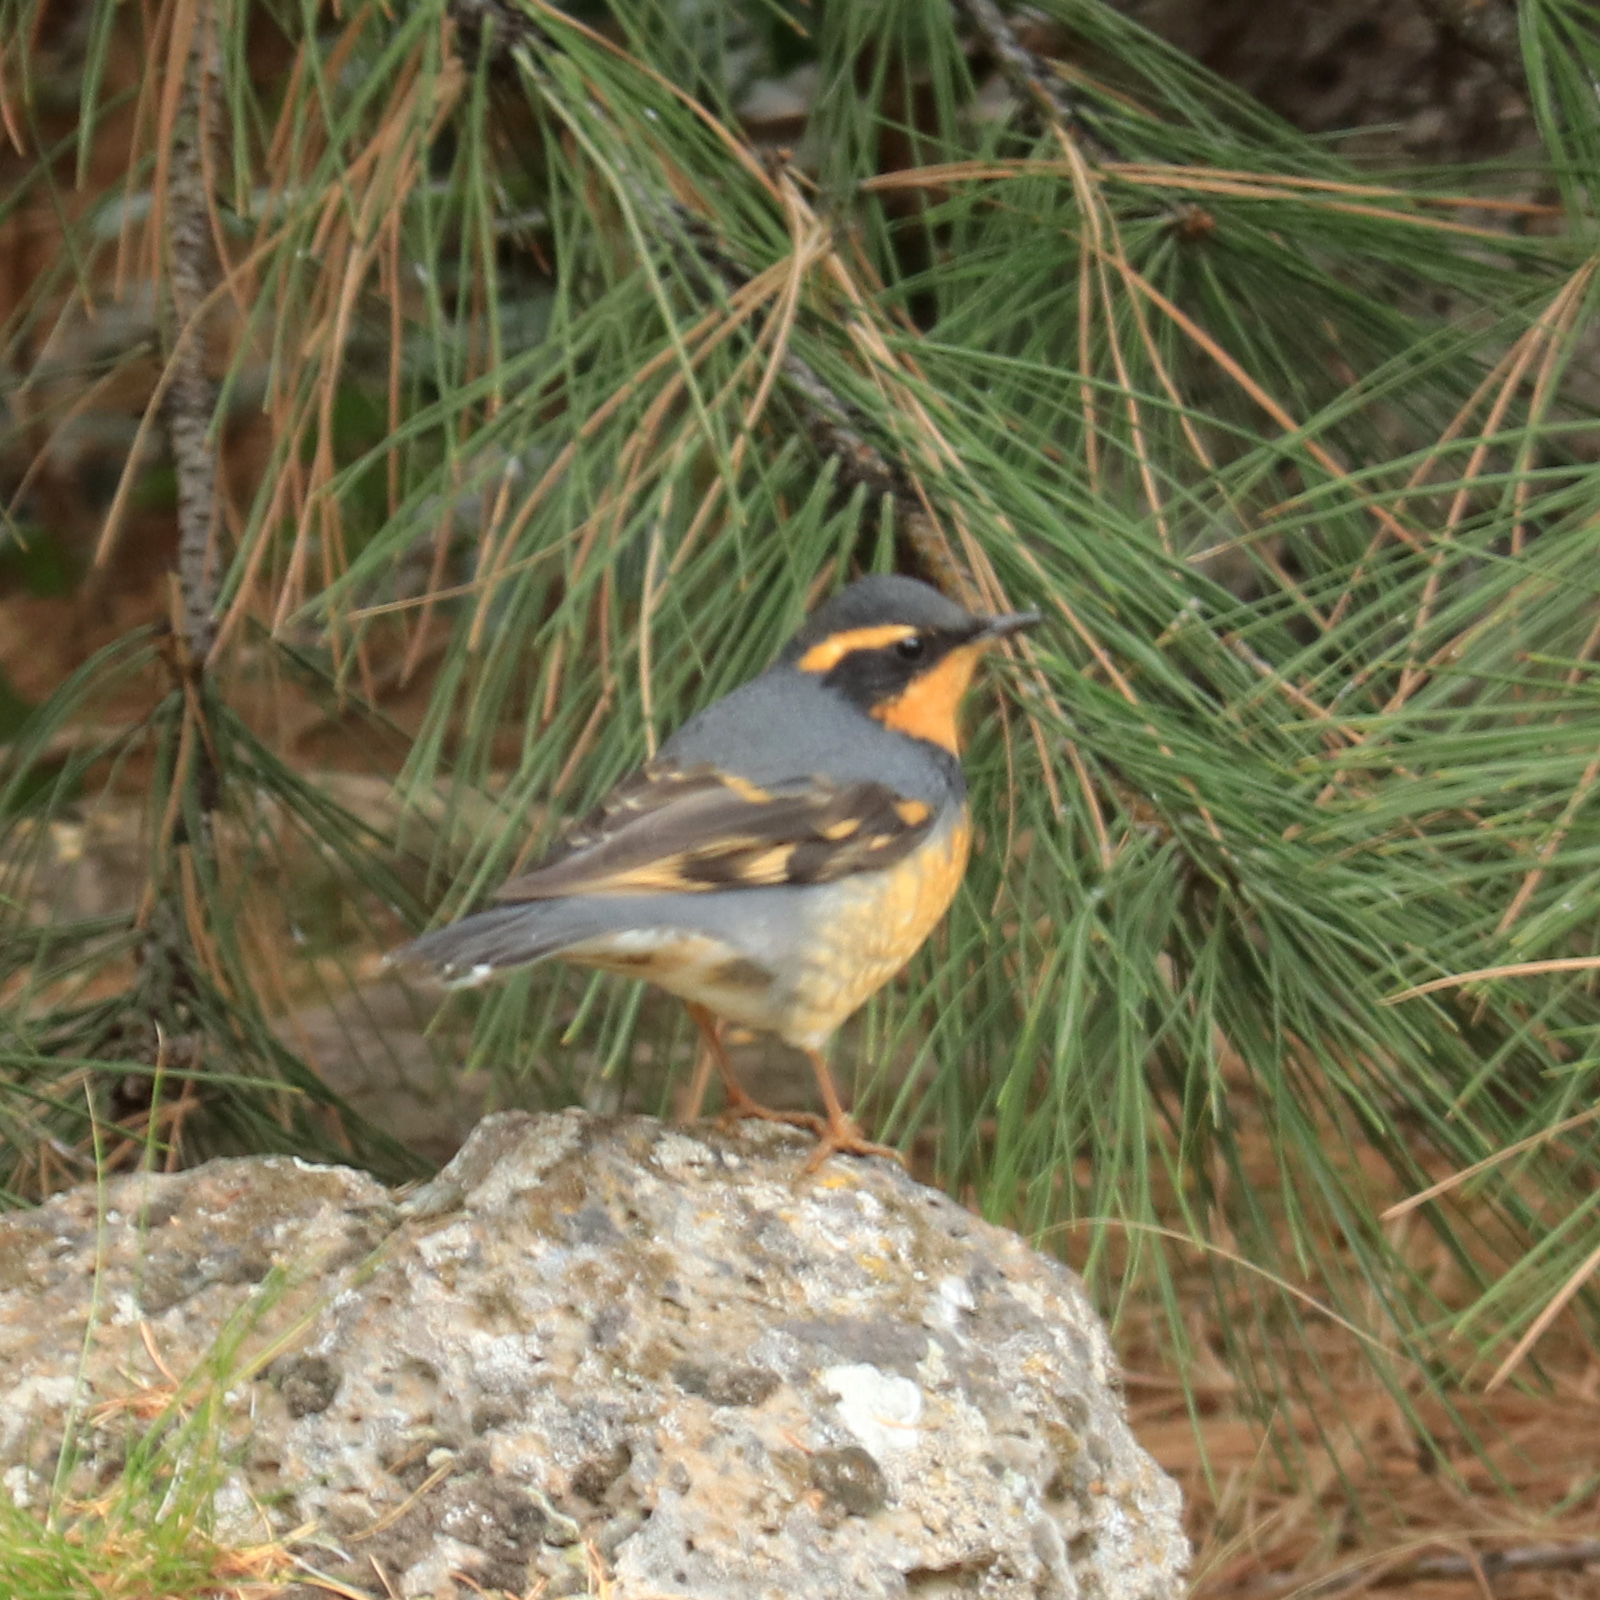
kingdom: Animalia
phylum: Chordata
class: Aves
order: Passeriformes
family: Turdidae
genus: Ixoreus
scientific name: Ixoreus naevius
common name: Varied thrush
